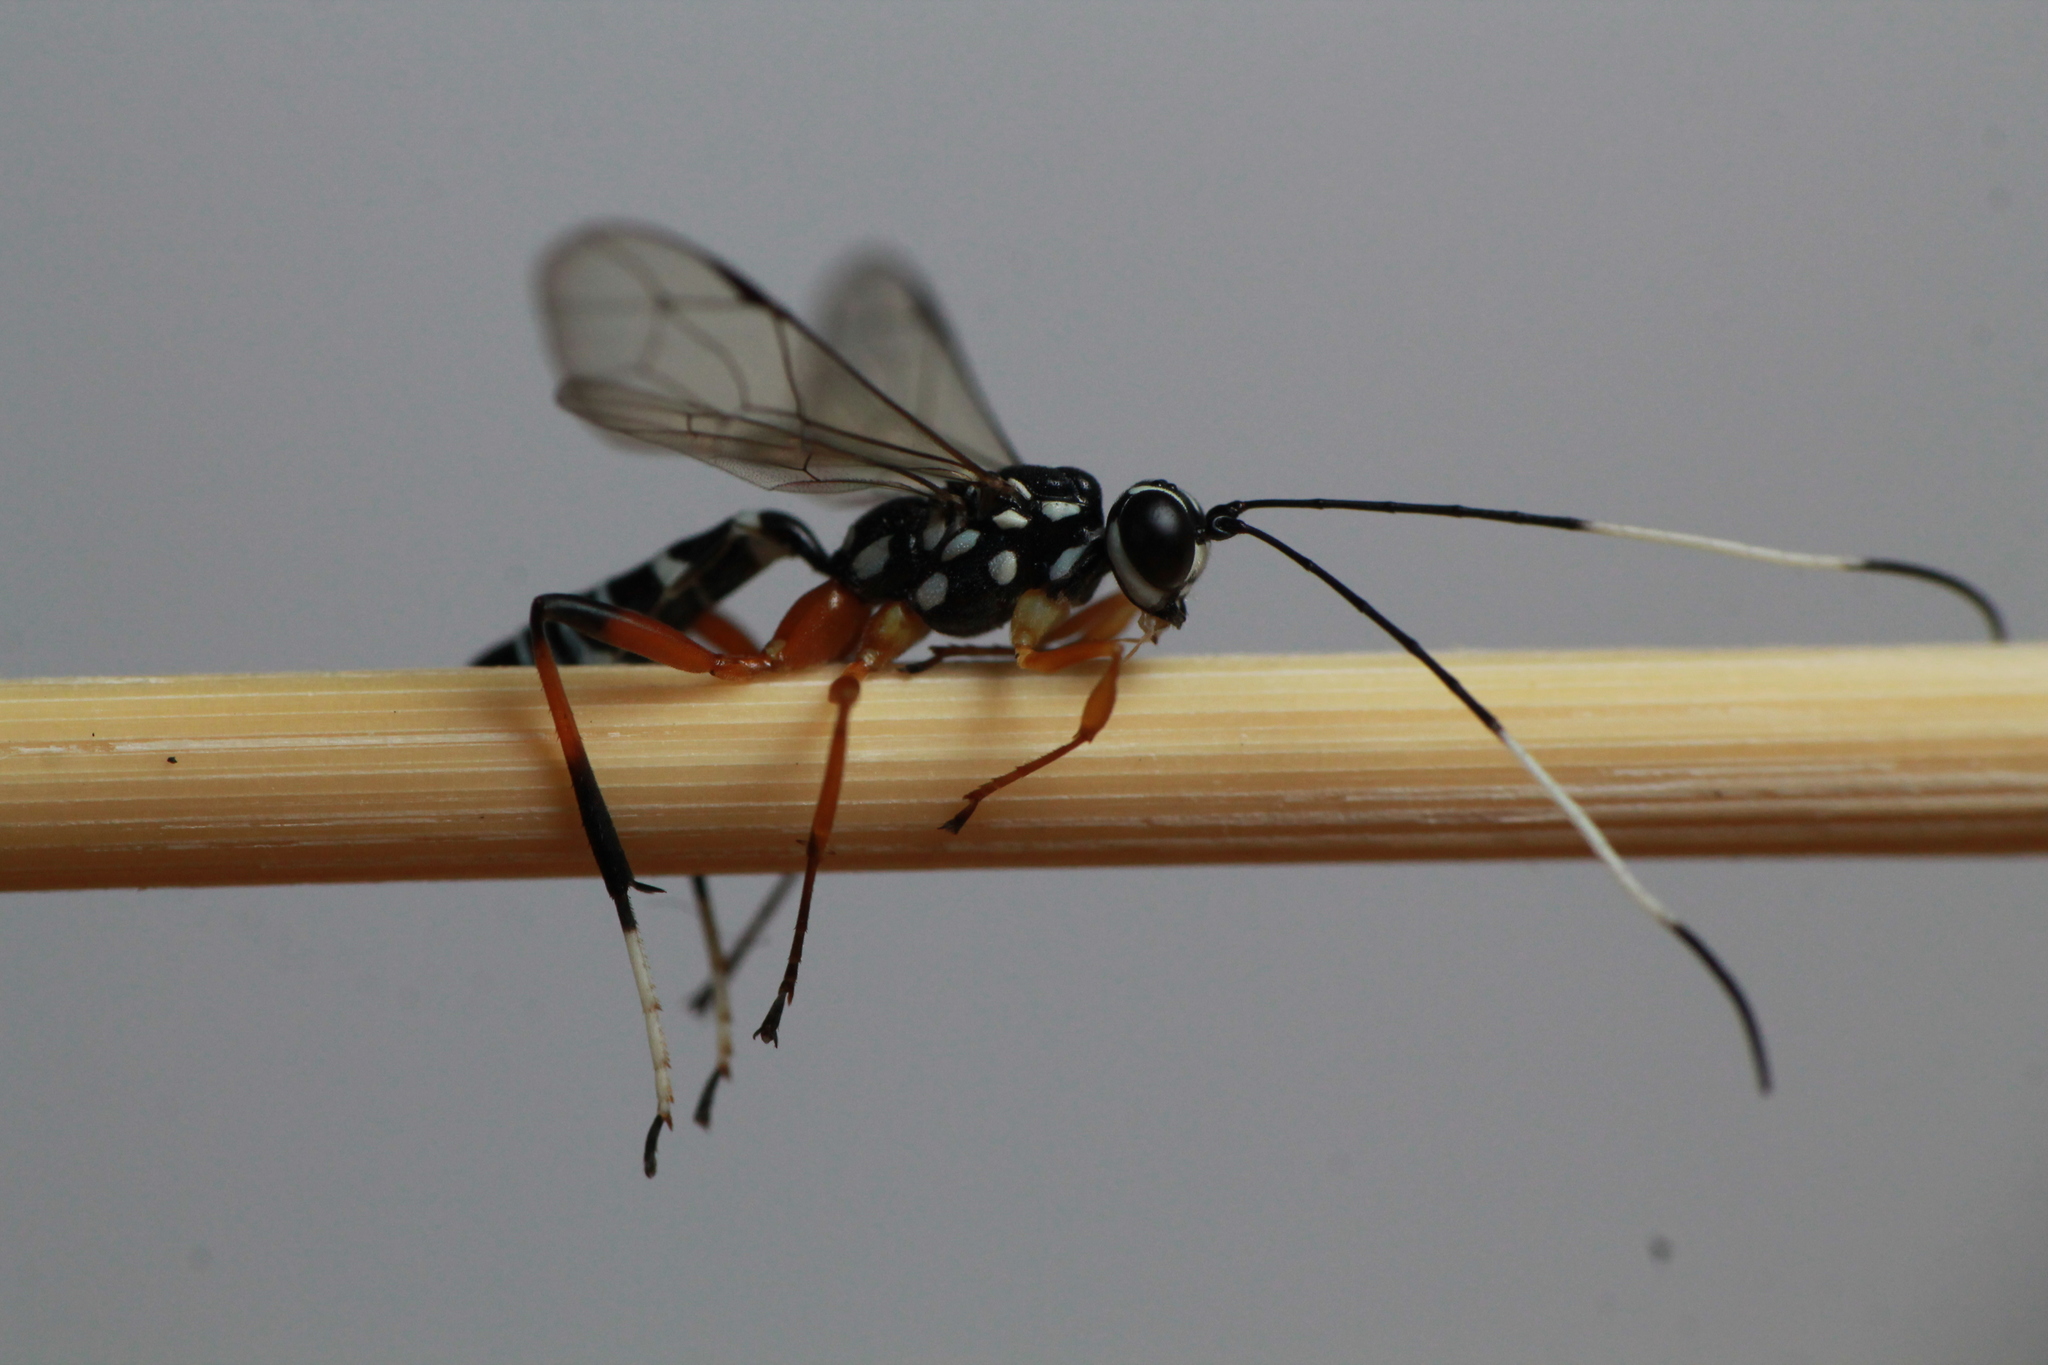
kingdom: Animalia
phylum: Arthropoda
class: Insecta
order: Hymenoptera
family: Ichneumonidae
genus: Xanthocryptus
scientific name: Xanthocryptus novozealandicus
